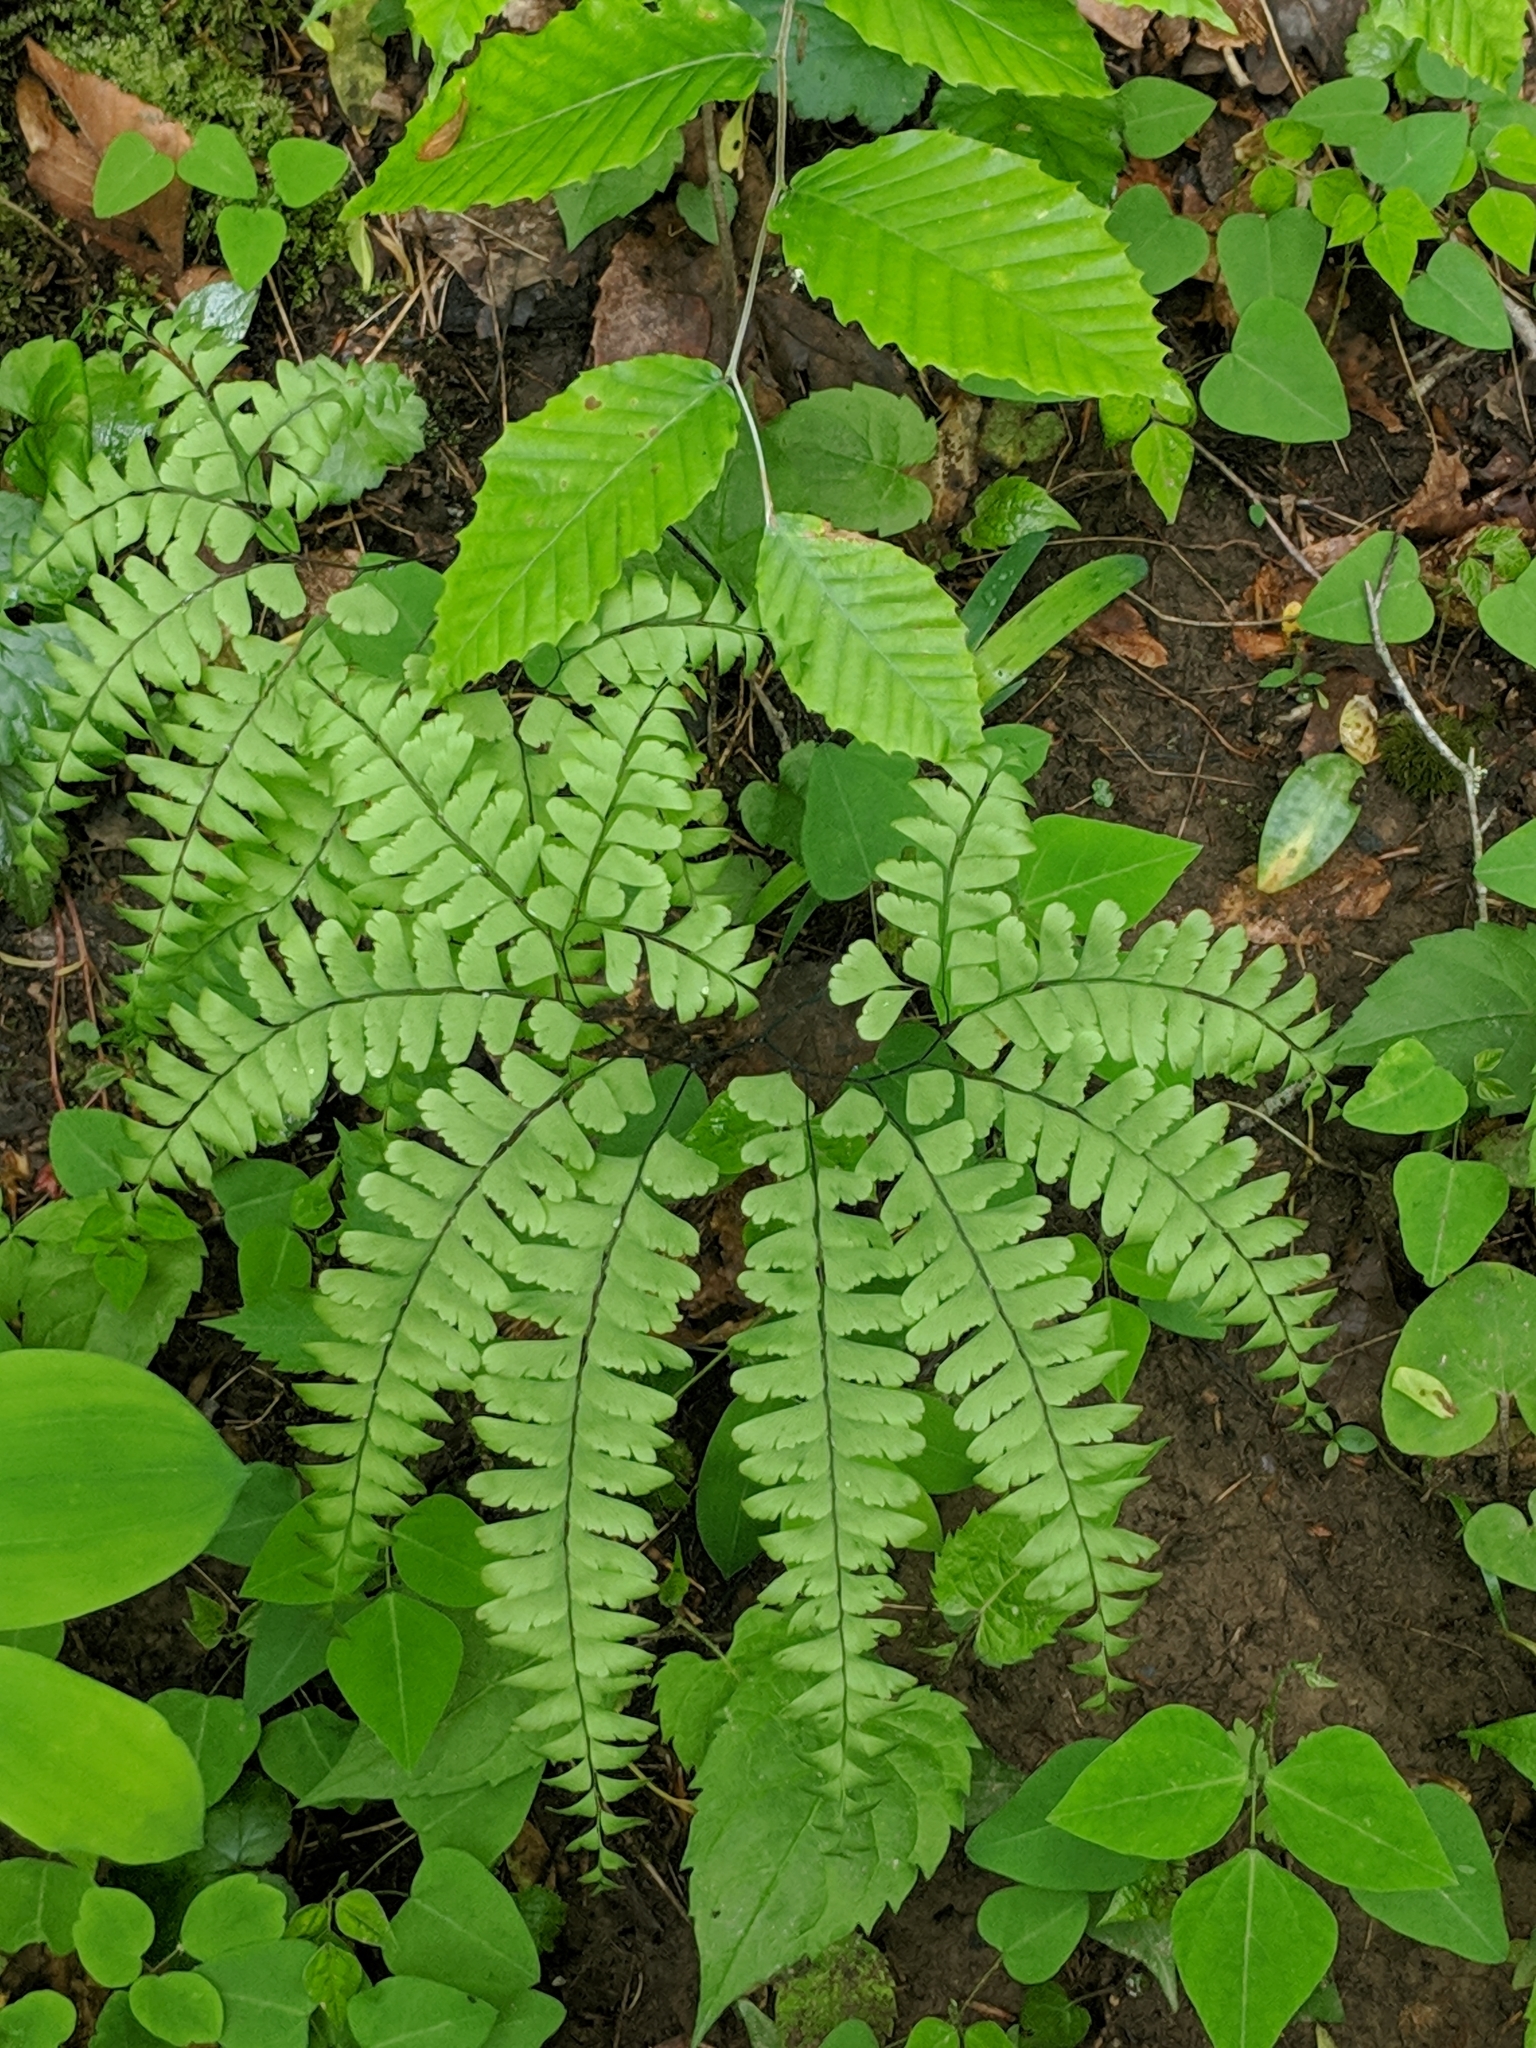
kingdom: Plantae
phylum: Tracheophyta
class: Polypodiopsida
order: Polypodiales
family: Pteridaceae
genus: Adiantum
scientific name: Adiantum pedatum
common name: Five-finger fern
